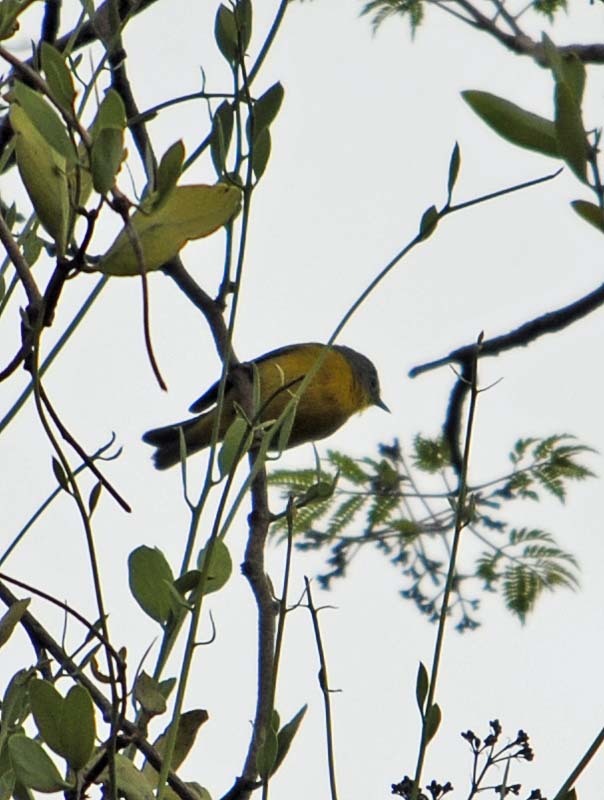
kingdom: Animalia
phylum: Chordata
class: Aves
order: Passeriformes
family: Parulidae
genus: Leiothlypis
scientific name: Leiothlypis ruficapilla
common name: Nashville warbler
